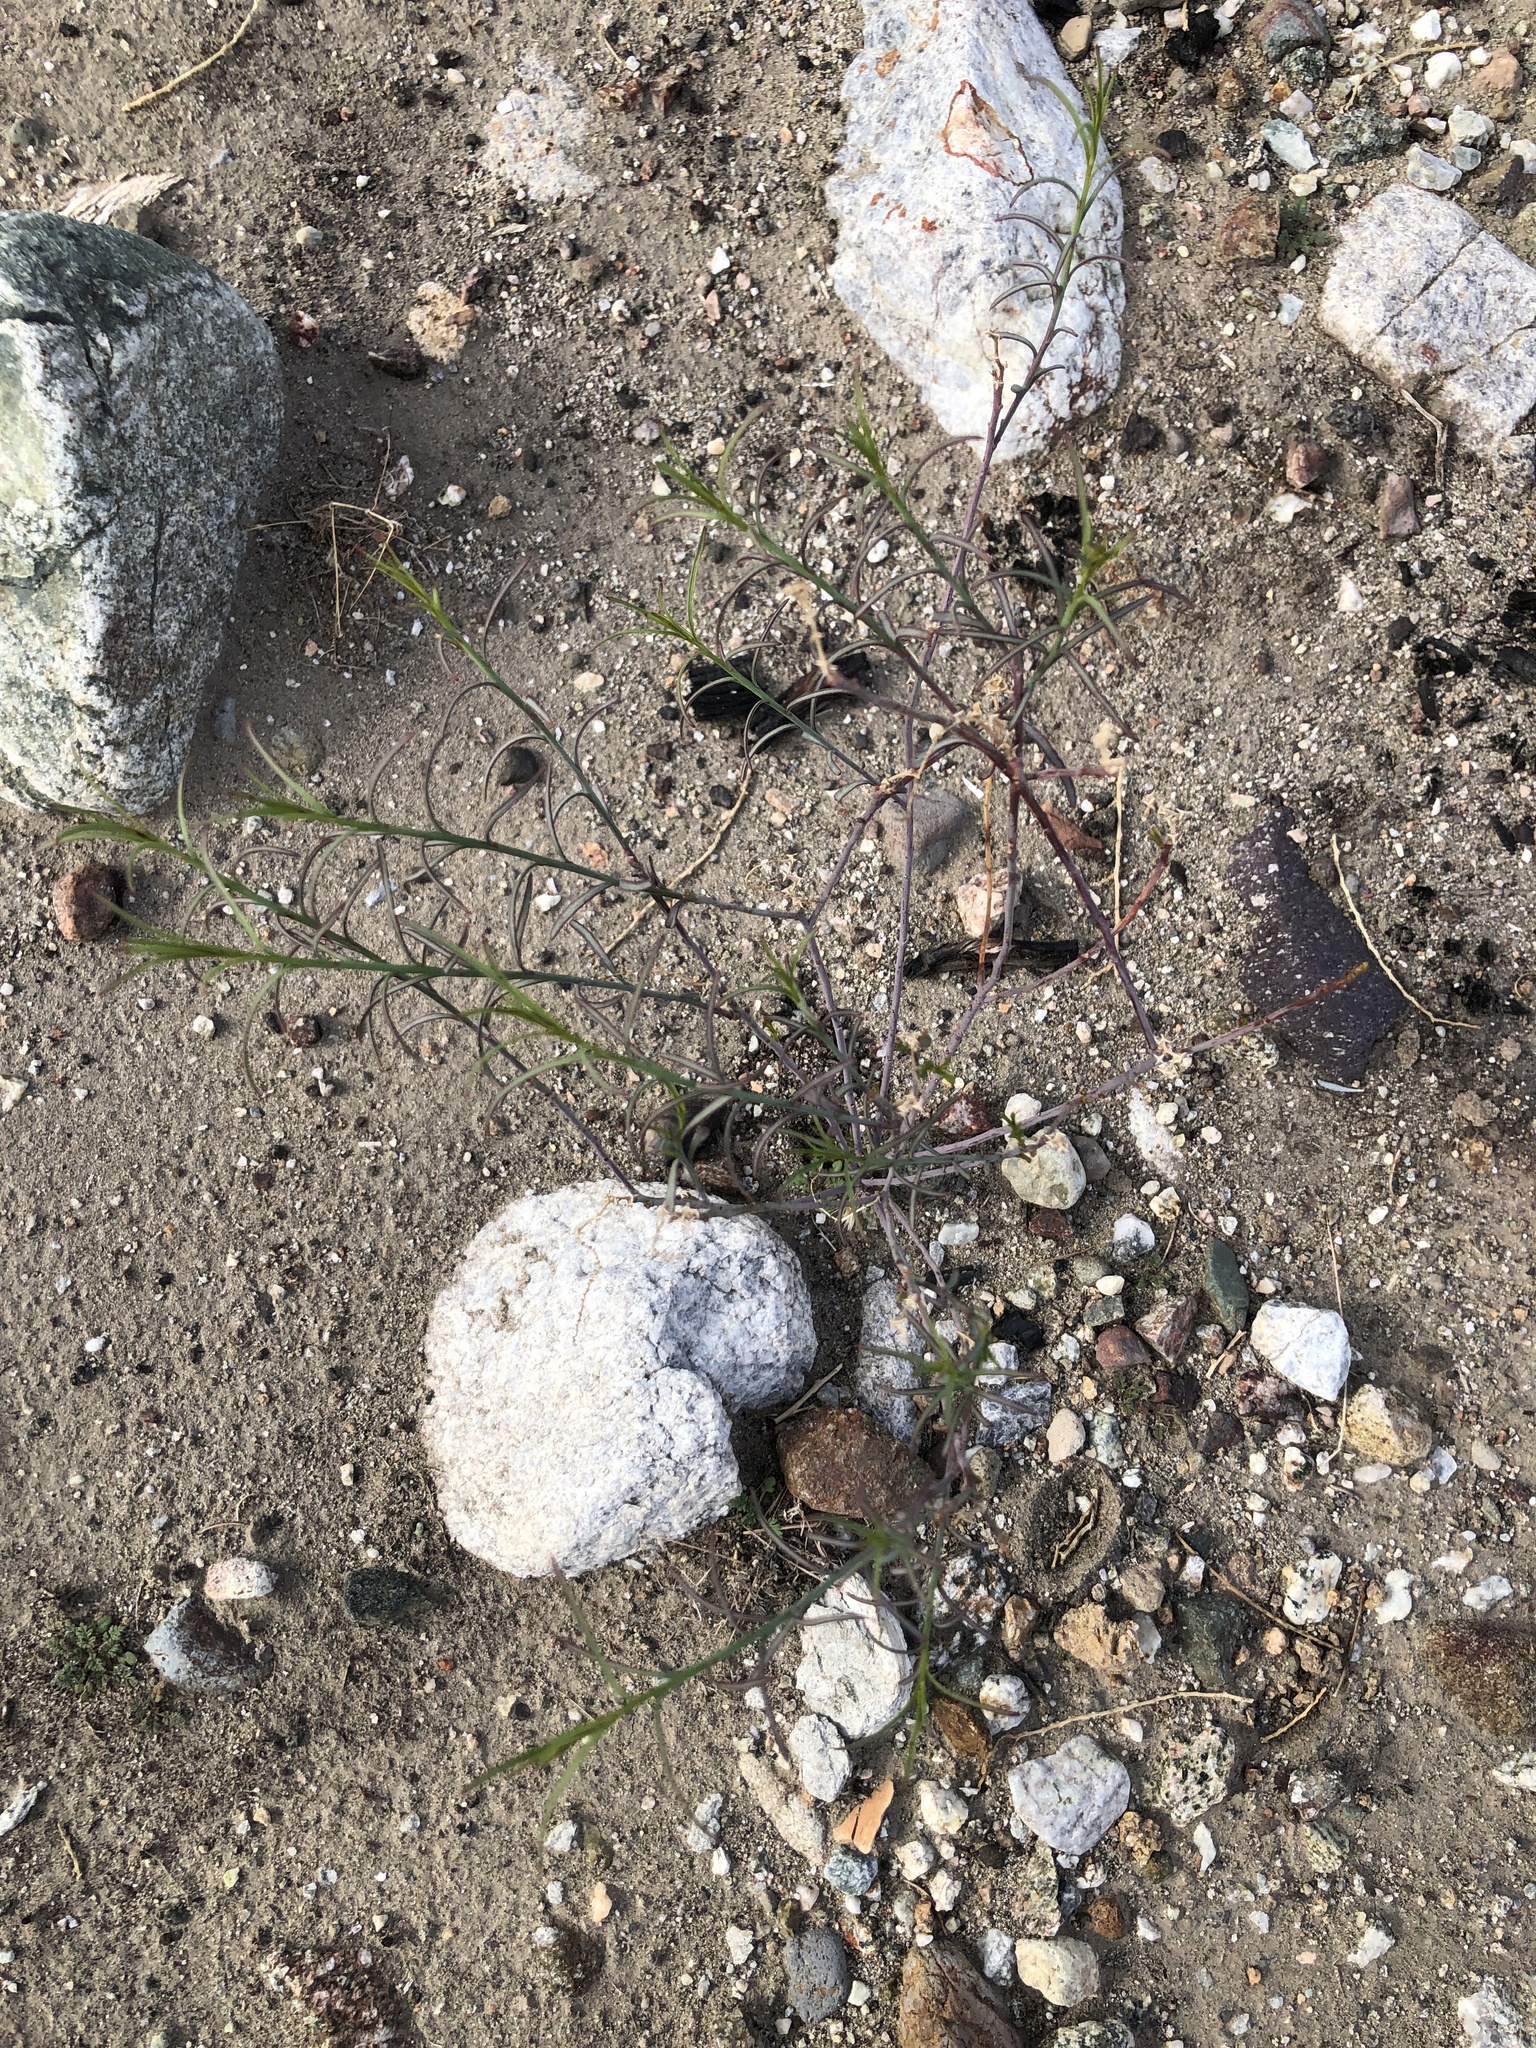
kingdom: Plantae
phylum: Tracheophyta
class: Magnoliopsida
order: Malpighiales
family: Euphorbiaceae
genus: Stillingia
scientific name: Stillingia linearifolia
